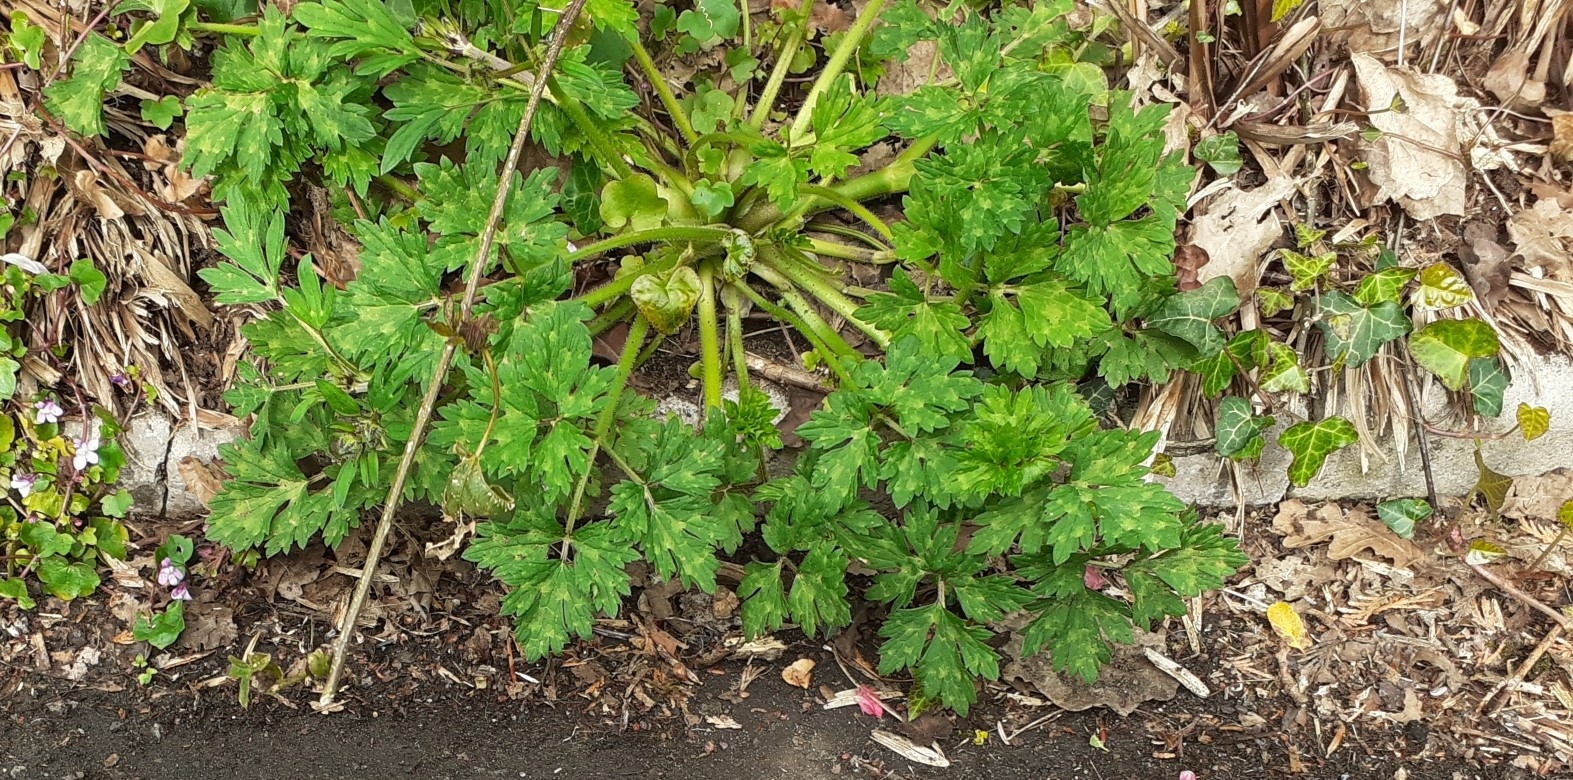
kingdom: Plantae
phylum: Tracheophyta
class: Magnoliopsida
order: Ranunculales
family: Ranunculaceae
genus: Ranunculus
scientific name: Ranunculus repens
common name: Creeping buttercup
